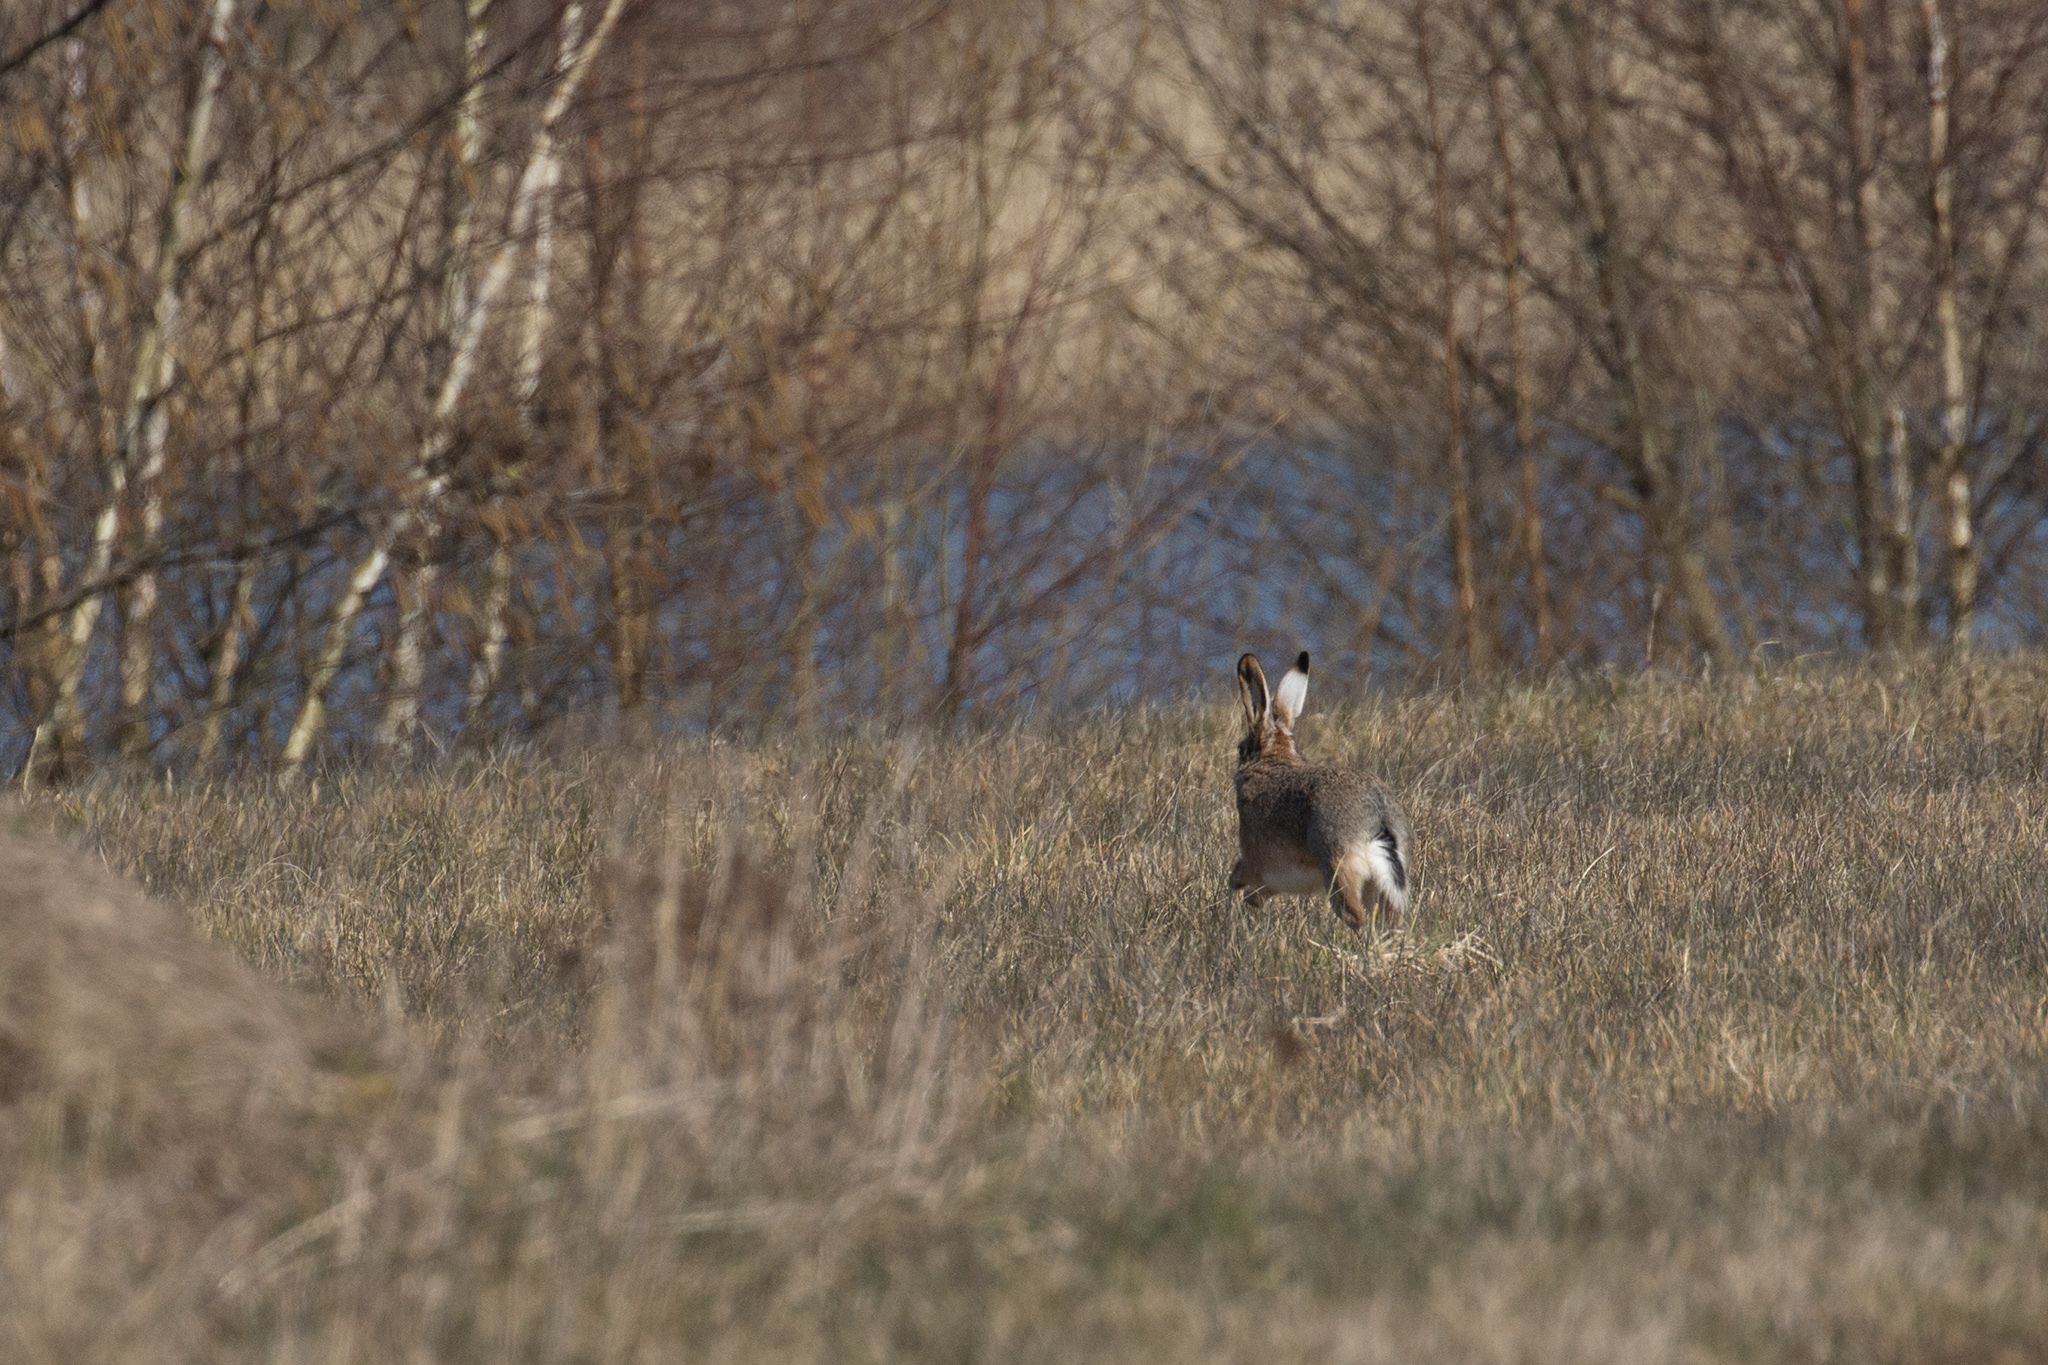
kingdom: Animalia
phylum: Chordata
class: Mammalia
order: Lagomorpha
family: Leporidae
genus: Lepus
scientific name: Lepus europaeus
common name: European hare
